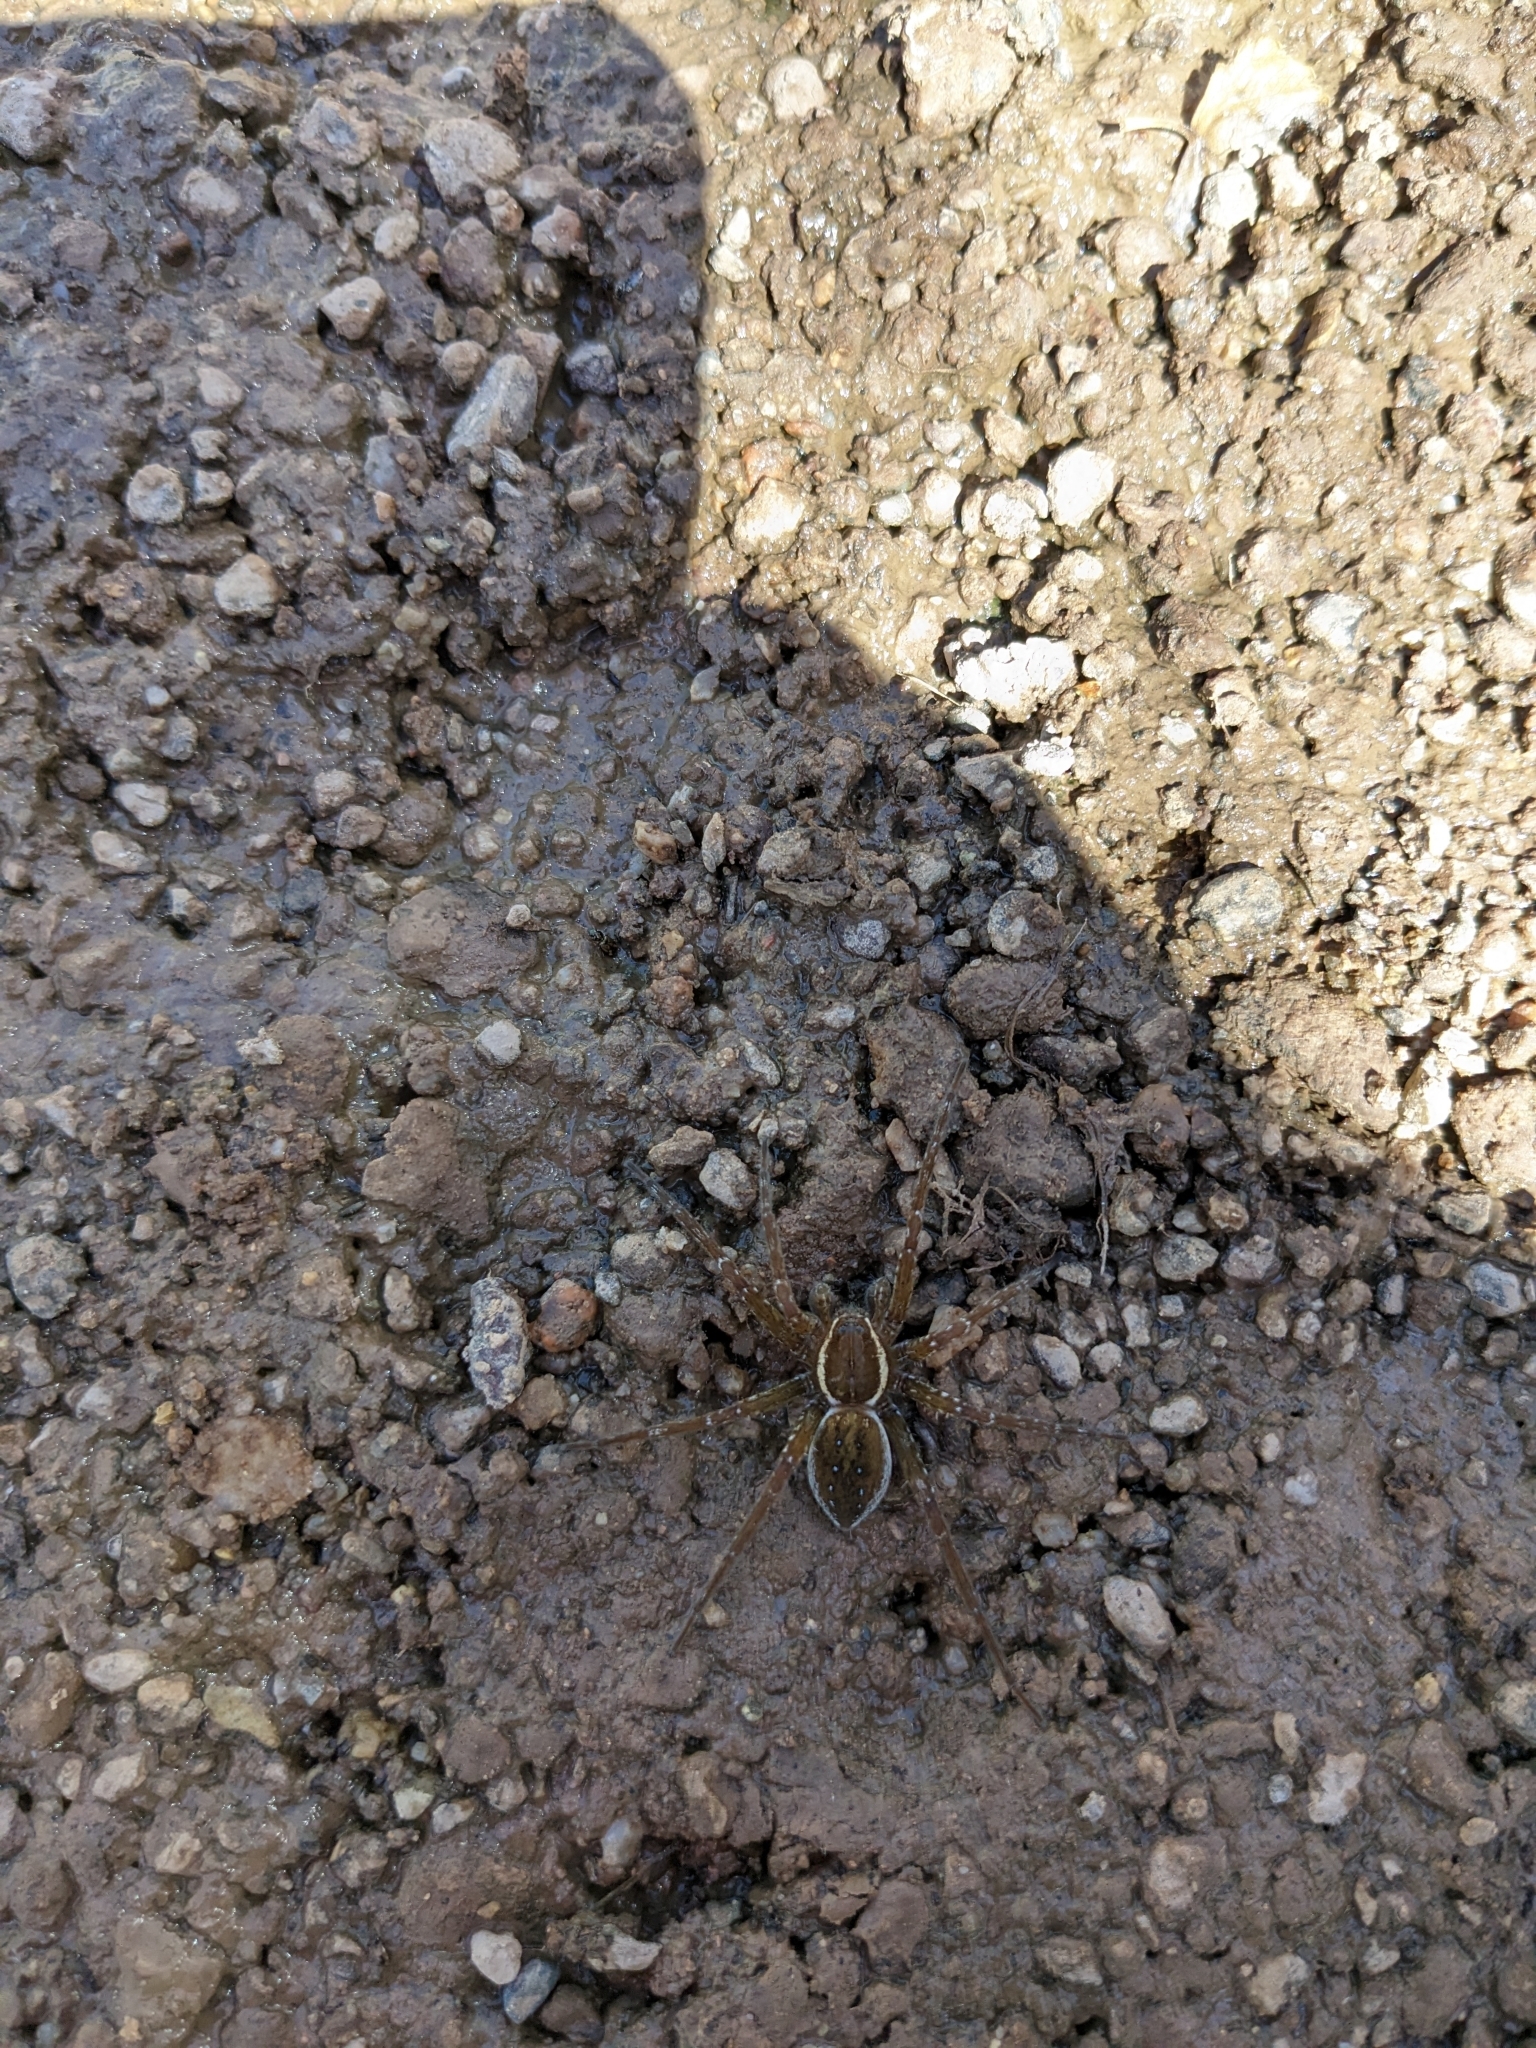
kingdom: Animalia
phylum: Arthropoda
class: Arachnida
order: Araneae
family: Pisauridae
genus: Dolomedes
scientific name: Dolomedes triton
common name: Six-spotted fishing spider
